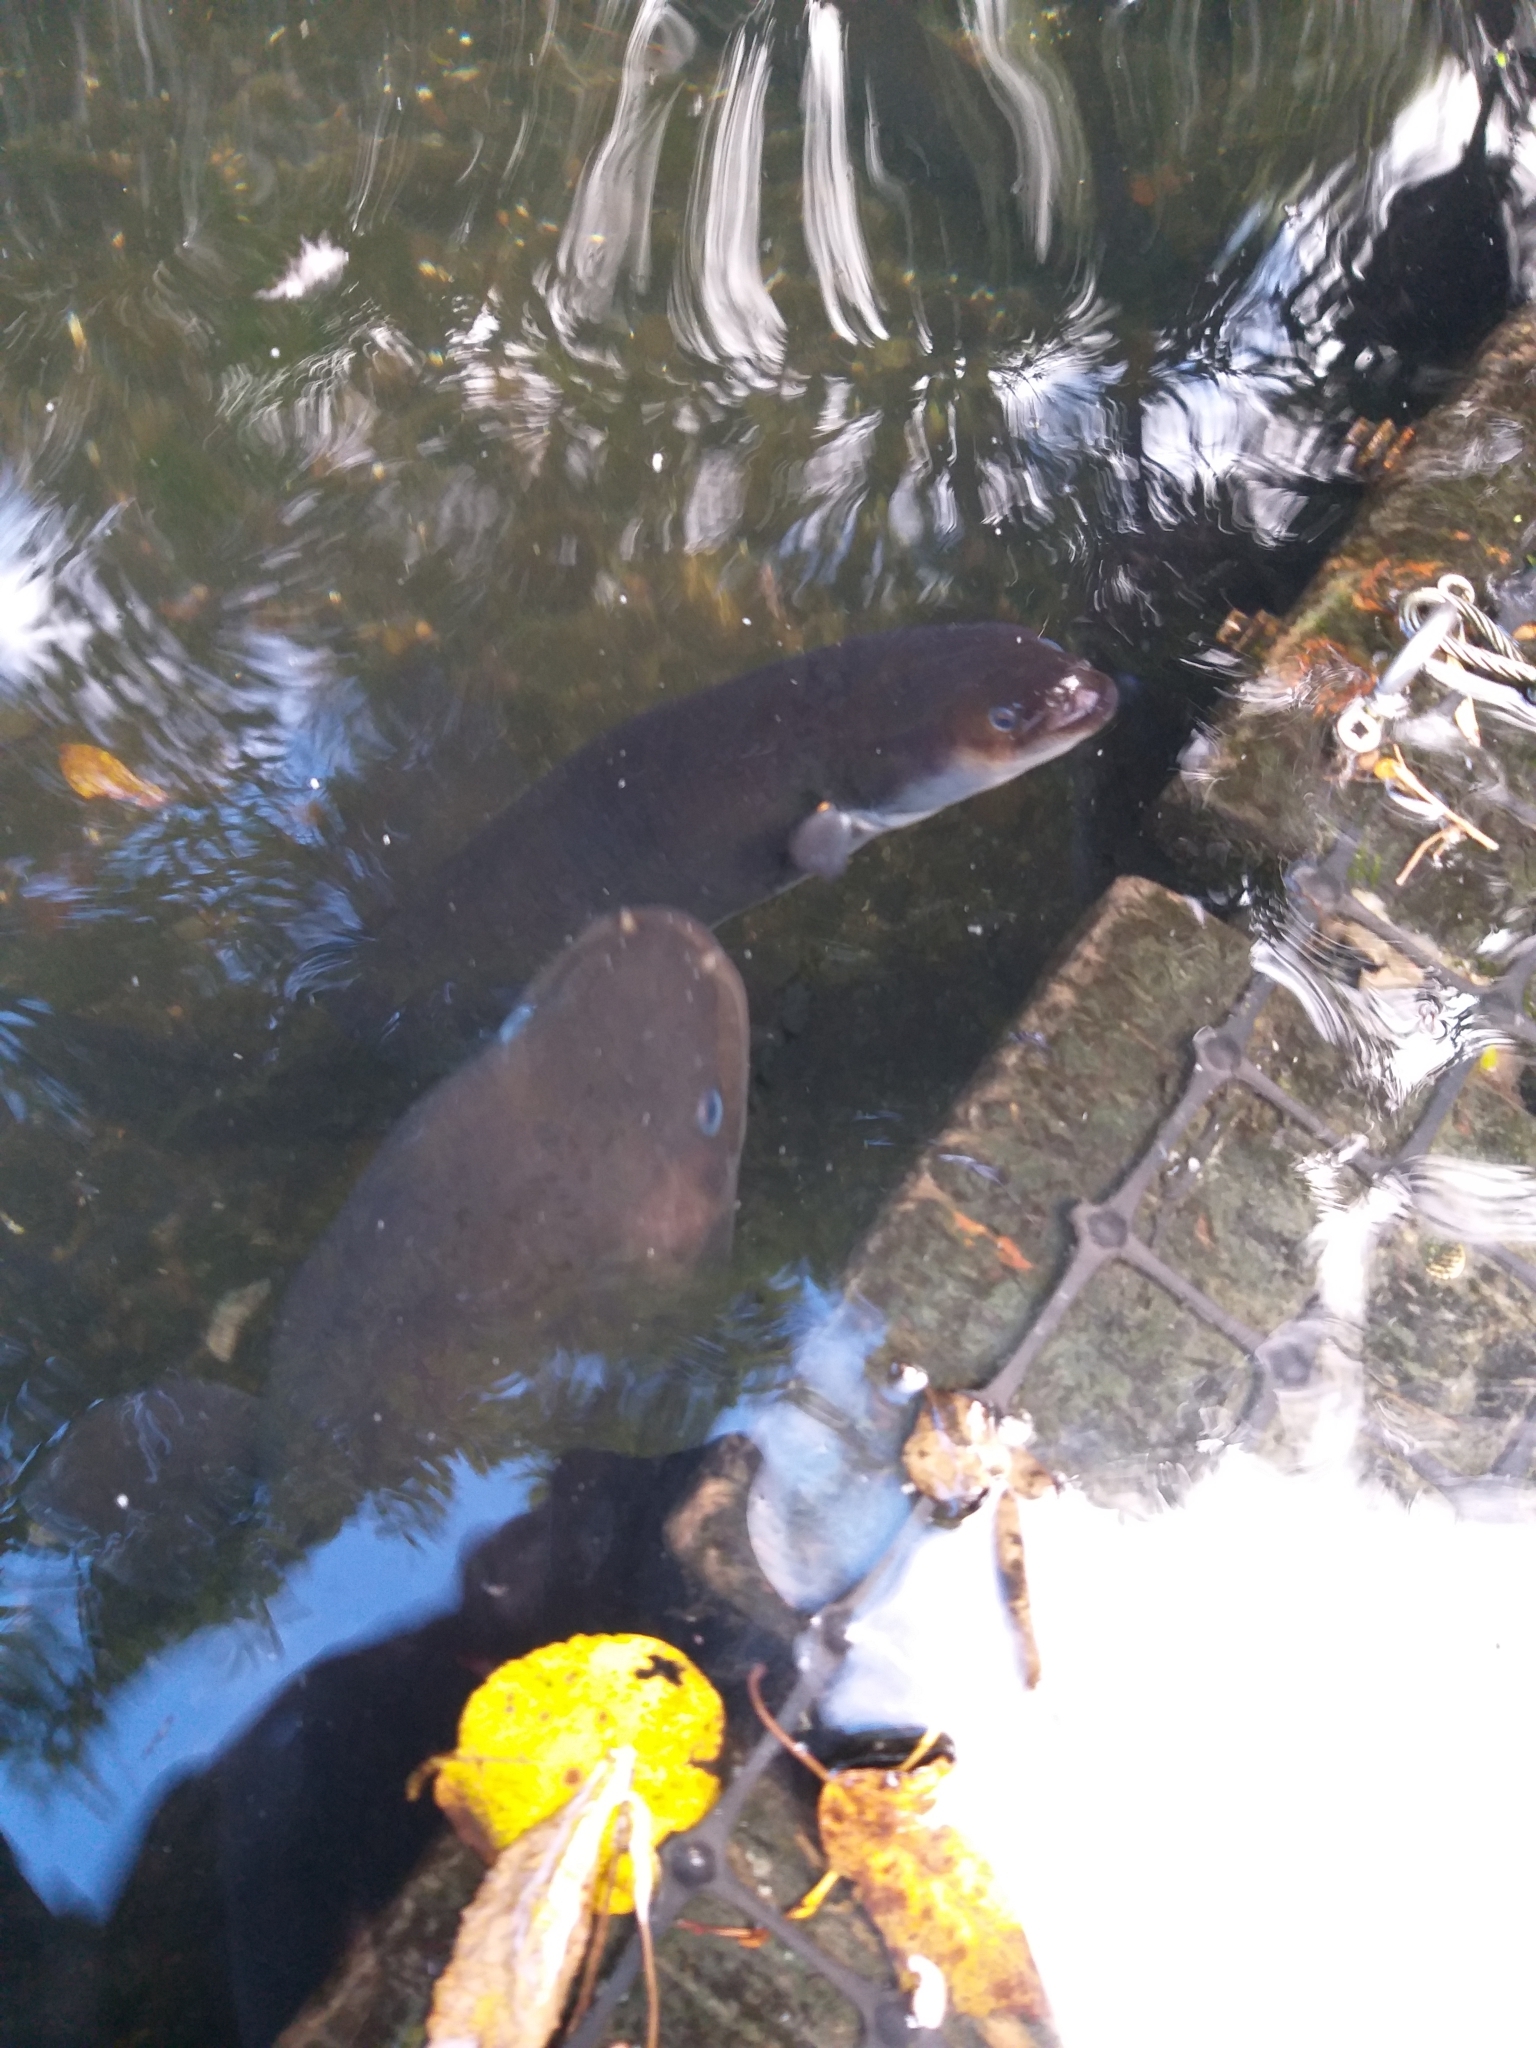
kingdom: Animalia
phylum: Chordata
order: Anguilliformes
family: Anguillidae
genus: Anguilla
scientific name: Anguilla dieffenbachii
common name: New zealand longfin eel
